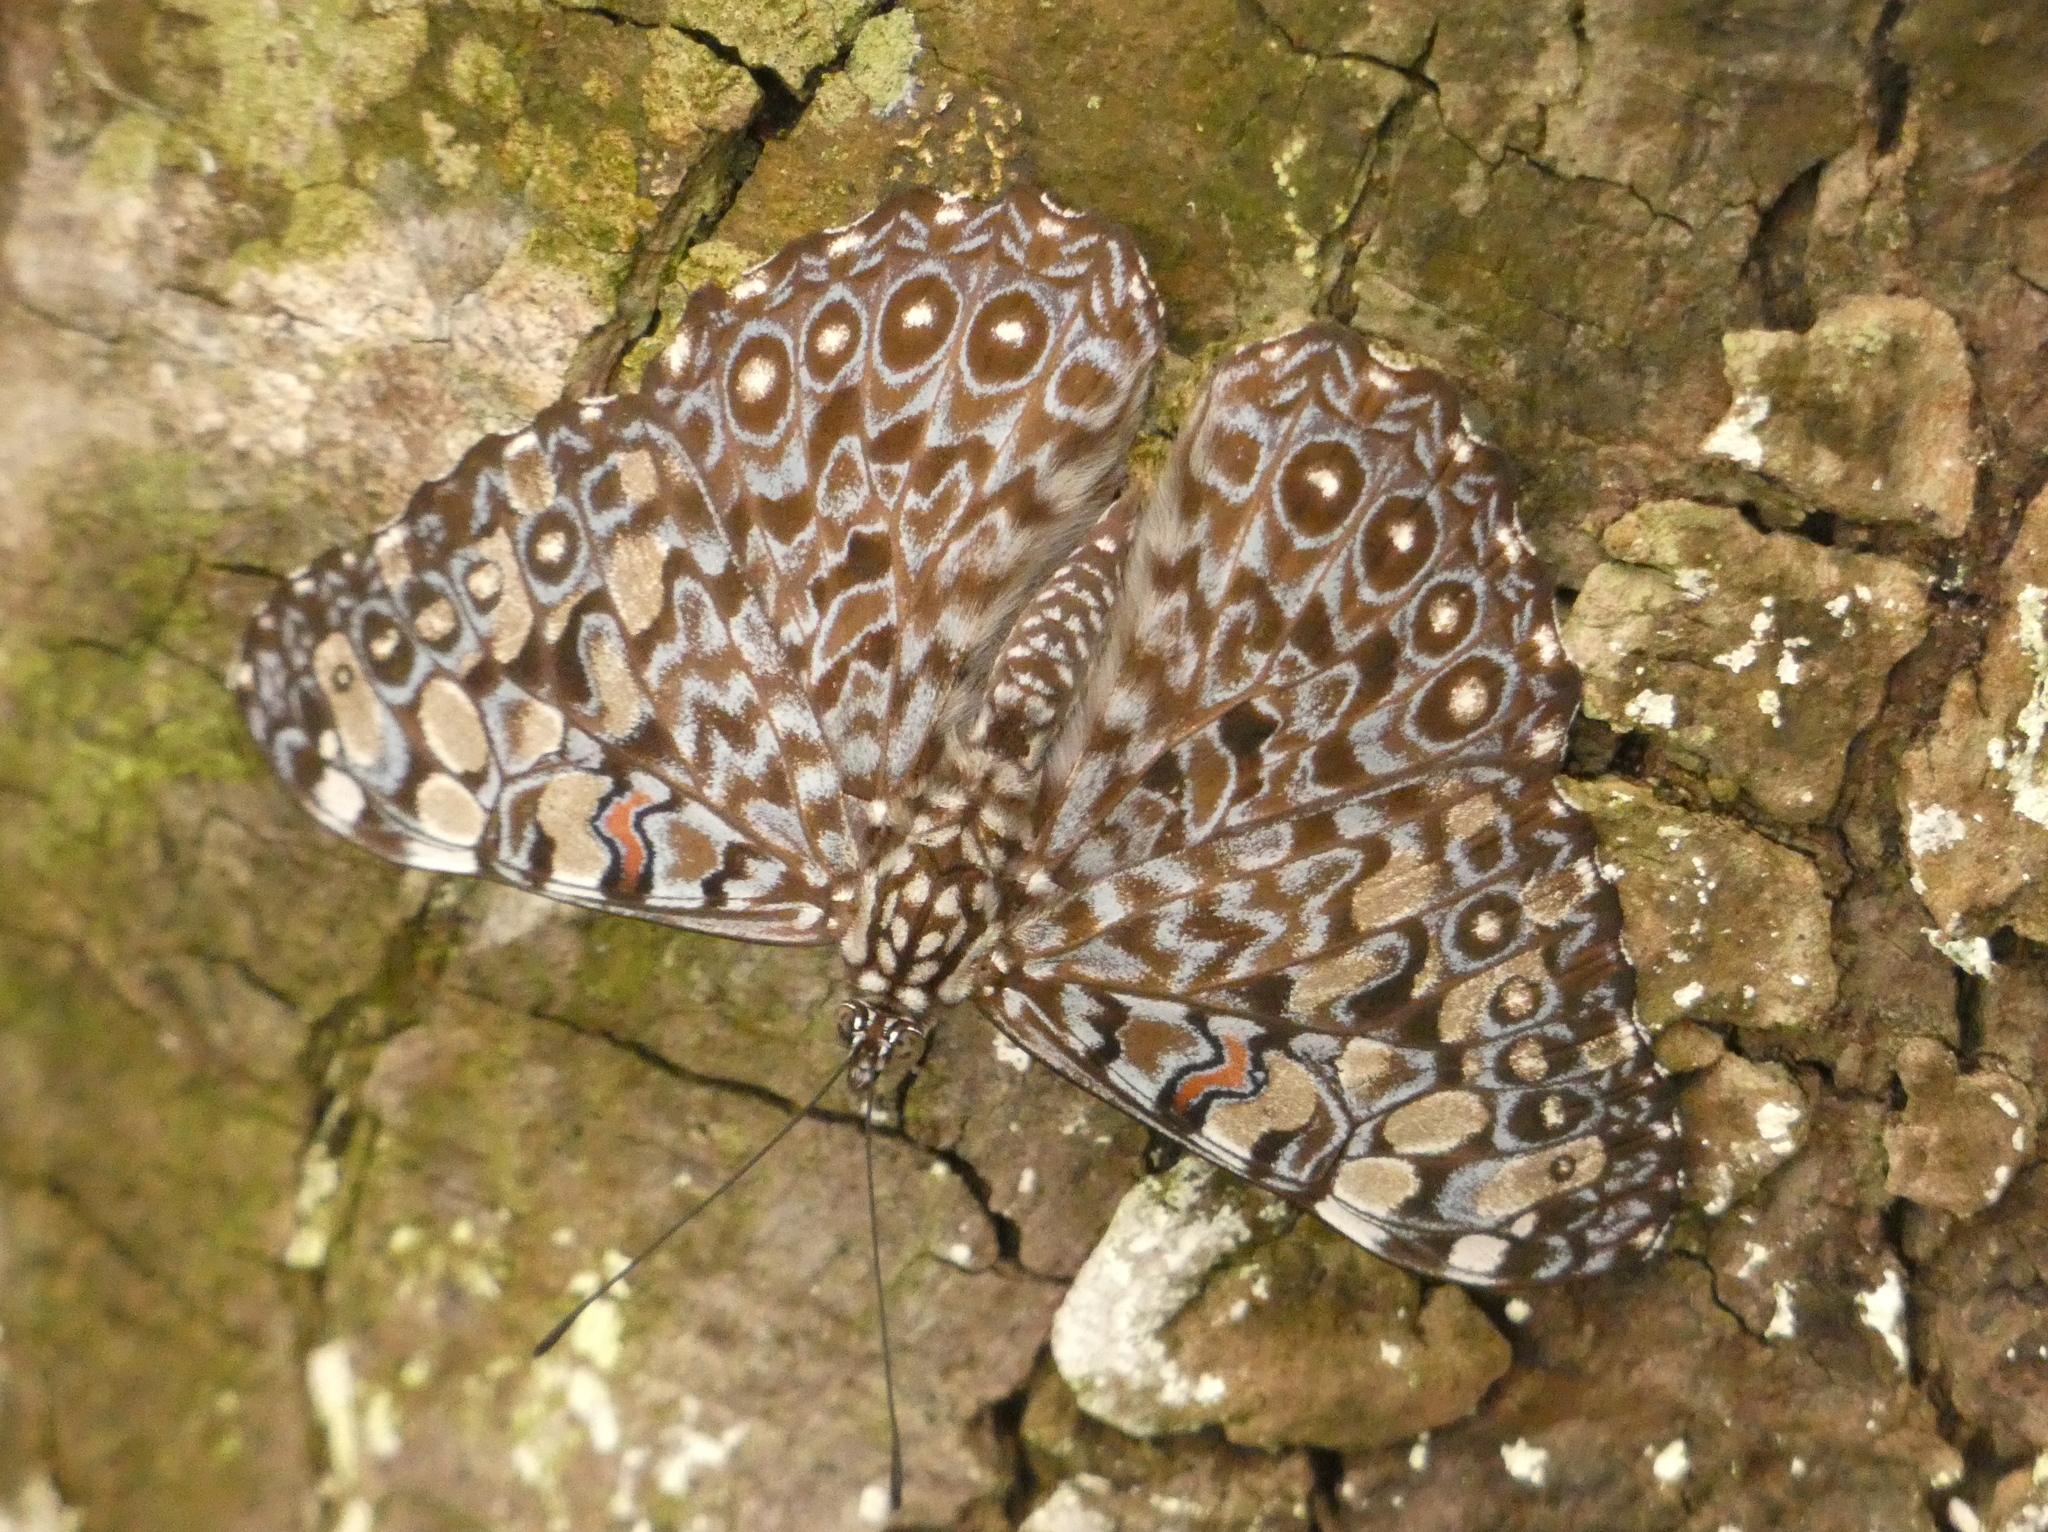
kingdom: Animalia
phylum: Arthropoda
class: Insecta
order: Lepidoptera
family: Nymphalidae
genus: Hamadryas
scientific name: Hamadryas feronia
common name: Variable cracker
